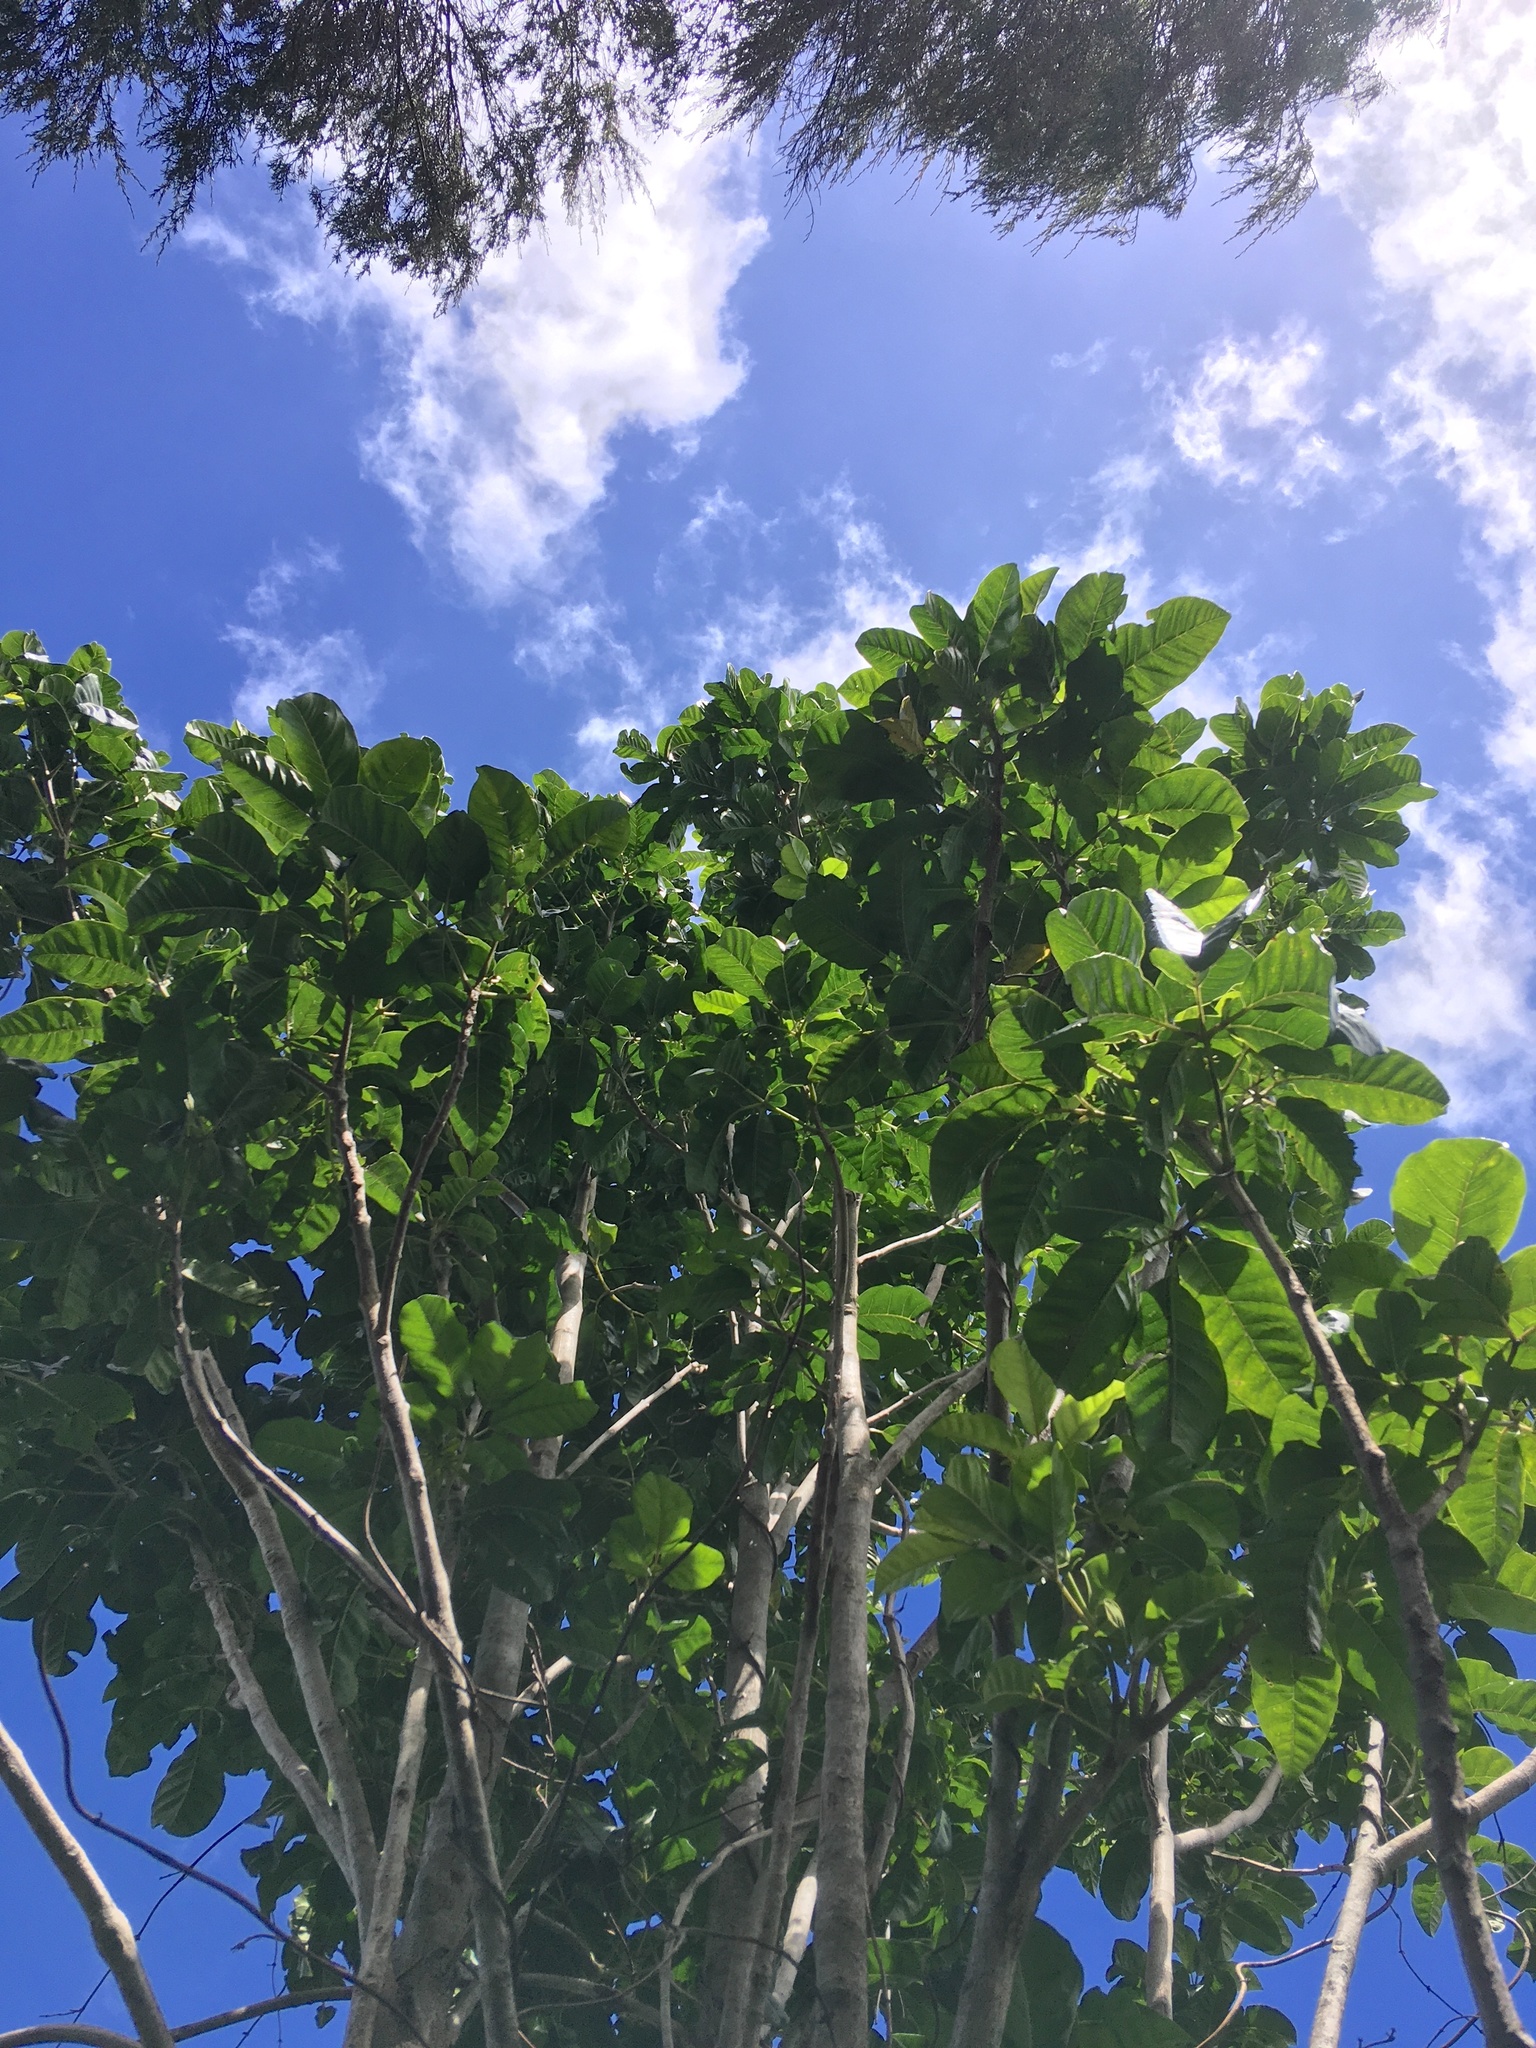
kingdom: Animalia
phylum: Arthropoda
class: Insecta
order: Lepidoptera
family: Hepialidae
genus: Aenetus
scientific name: Aenetus virescens
